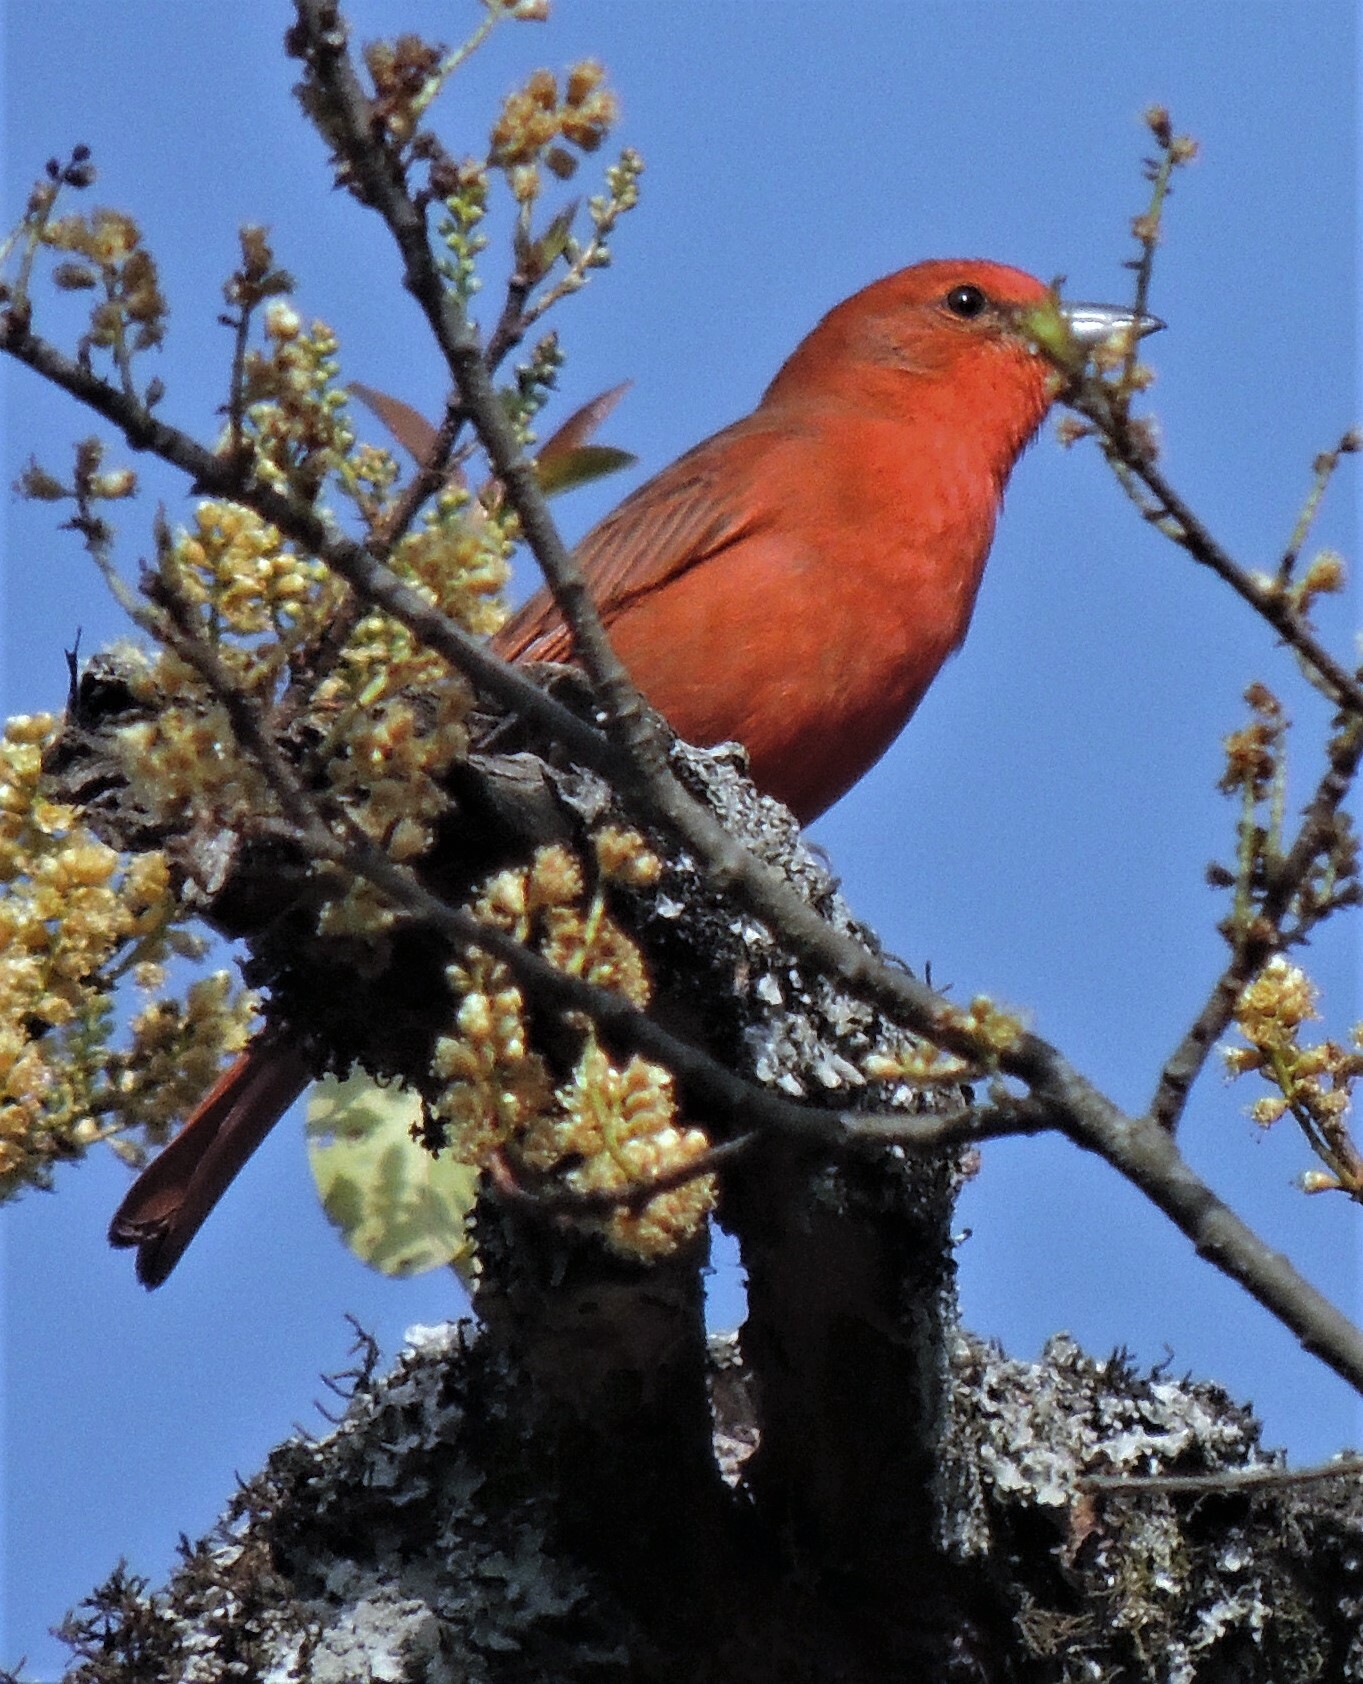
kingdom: Animalia
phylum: Chordata
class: Aves
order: Passeriformes
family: Cardinalidae
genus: Piranga
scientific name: Piranga flava
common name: Red tanager
